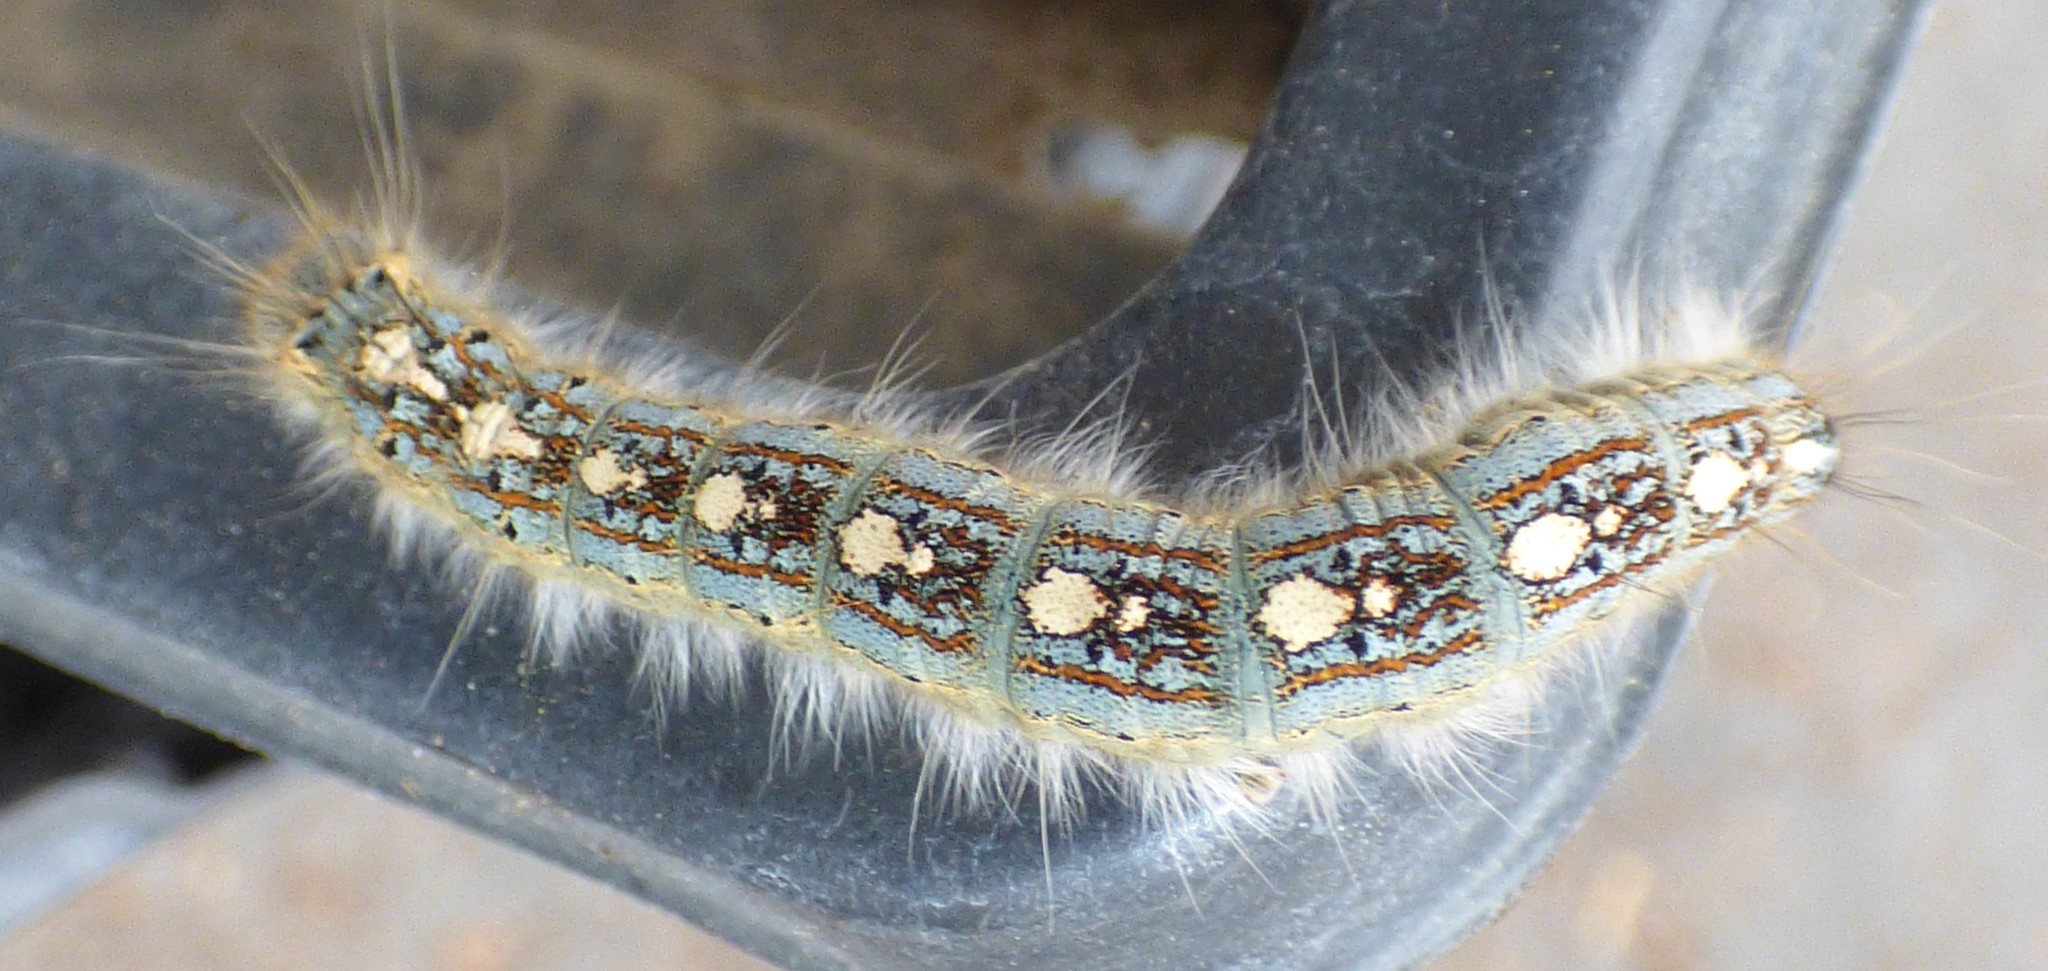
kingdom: Animalia
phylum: Arthropoda
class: Insecta
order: Lepidoptera
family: Lasiocampidae
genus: Malacosoma
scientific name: Malacosoma disstria
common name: Forest tent caterpillar
